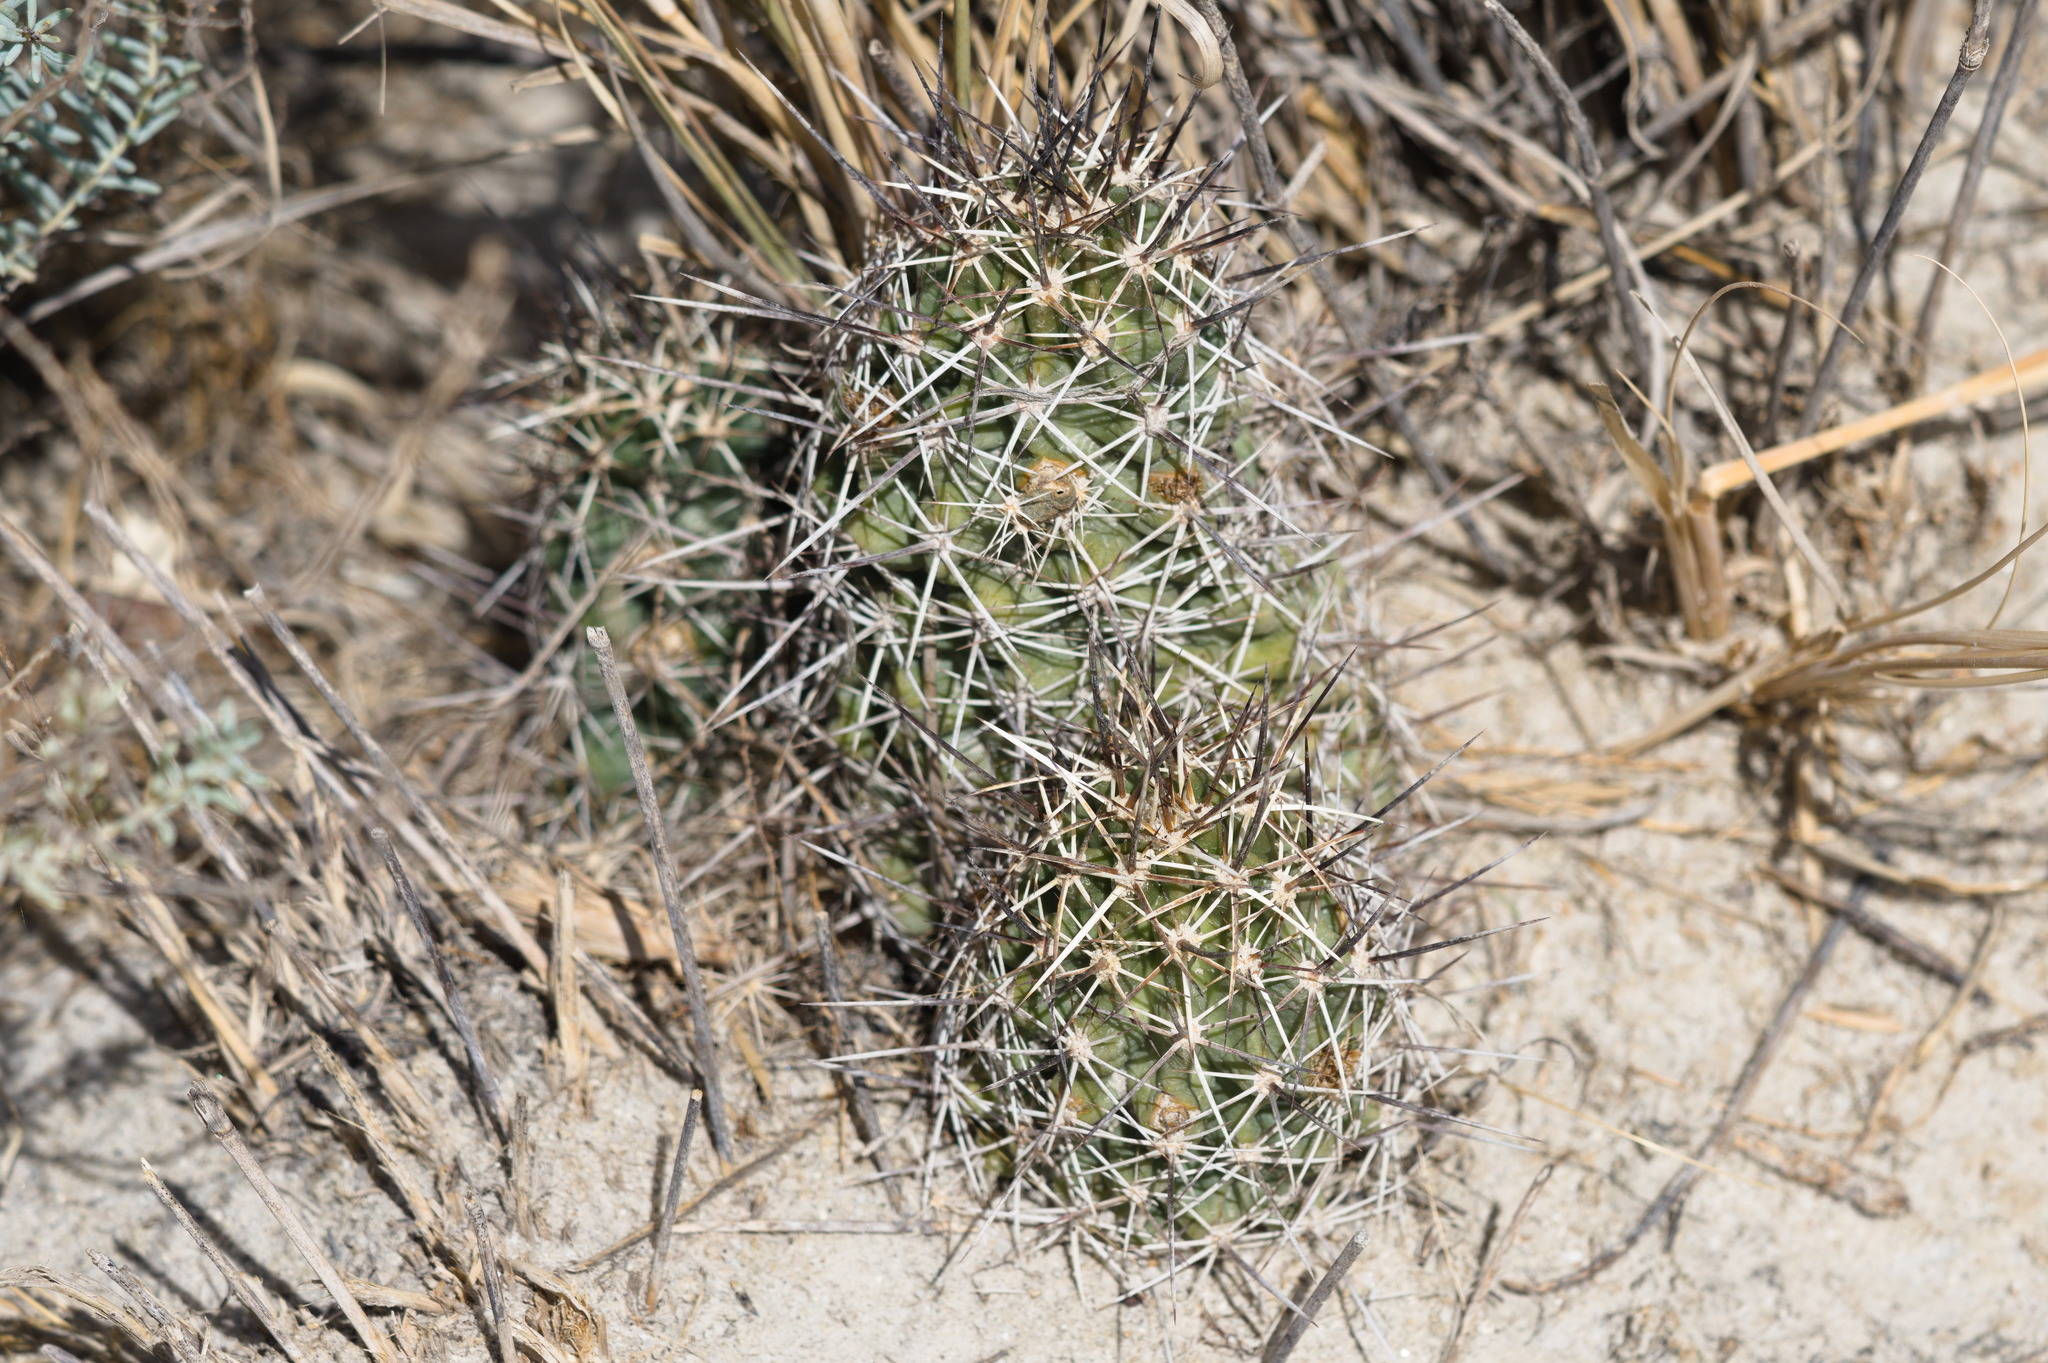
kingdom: Plantae
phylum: Tracheophyta
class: Magnoliopsida
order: Caryophyllales
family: Cactaceae
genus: Echinocereus
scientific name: Echinocereus fendleri
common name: Fendler's hedgehog cactus
